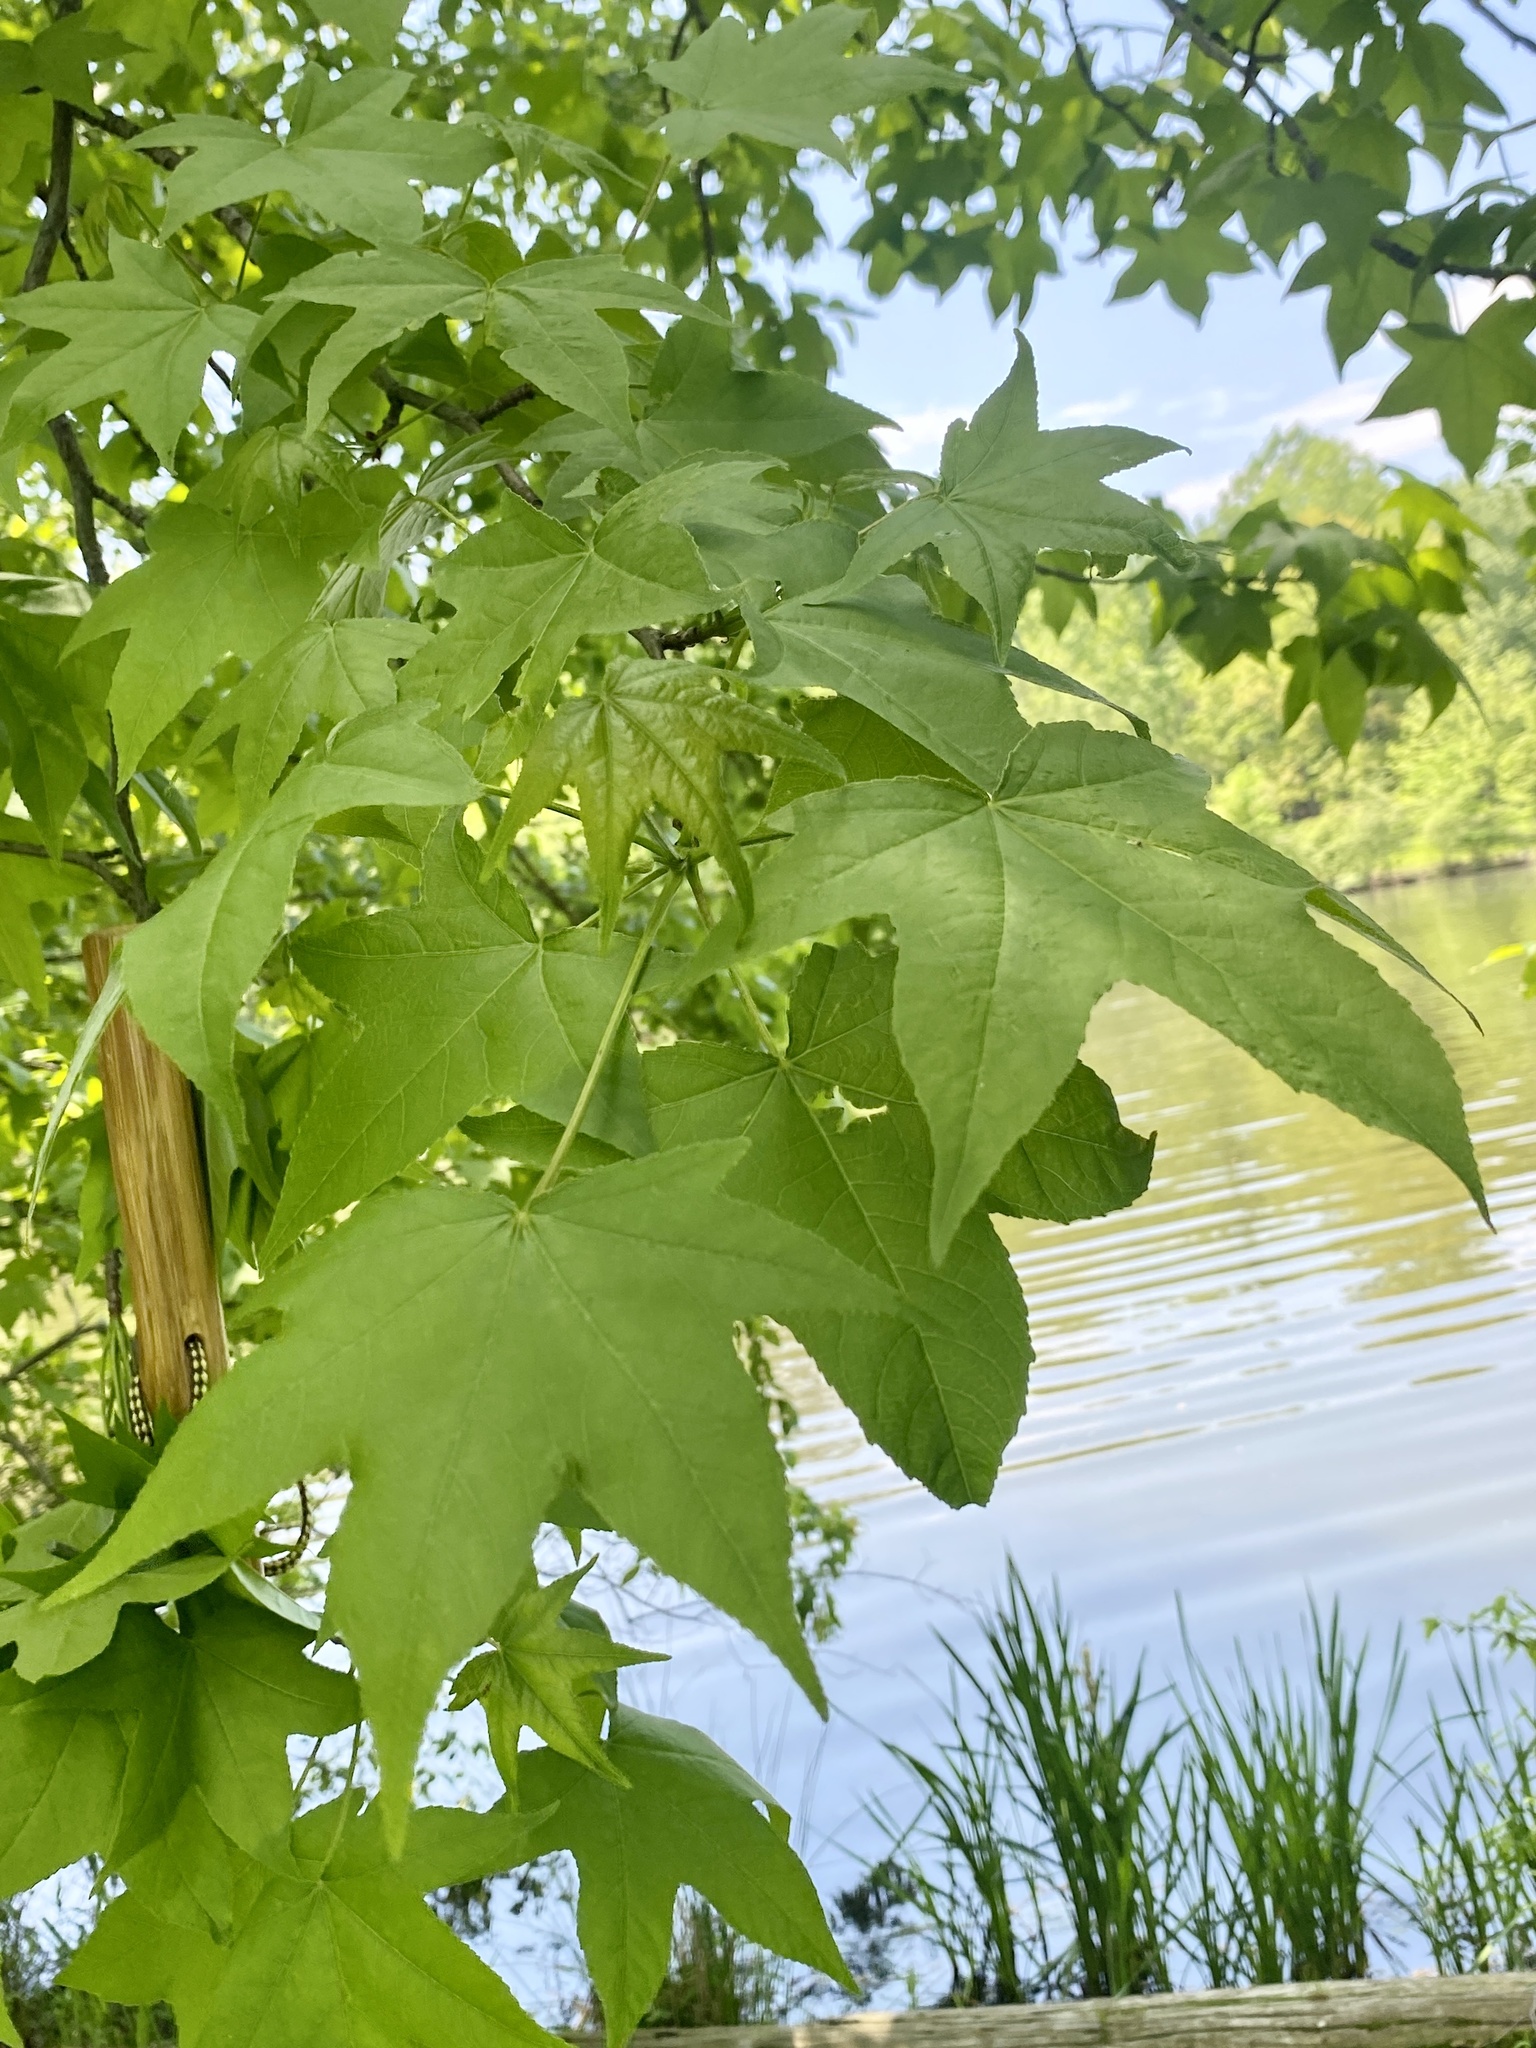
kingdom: Plantae
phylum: Tracheophyta
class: Magnoliopsida
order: Saxifragales
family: Altingiaceae
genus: Liquidambar
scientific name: Liquidambar styraciflua
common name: Sweet gum
